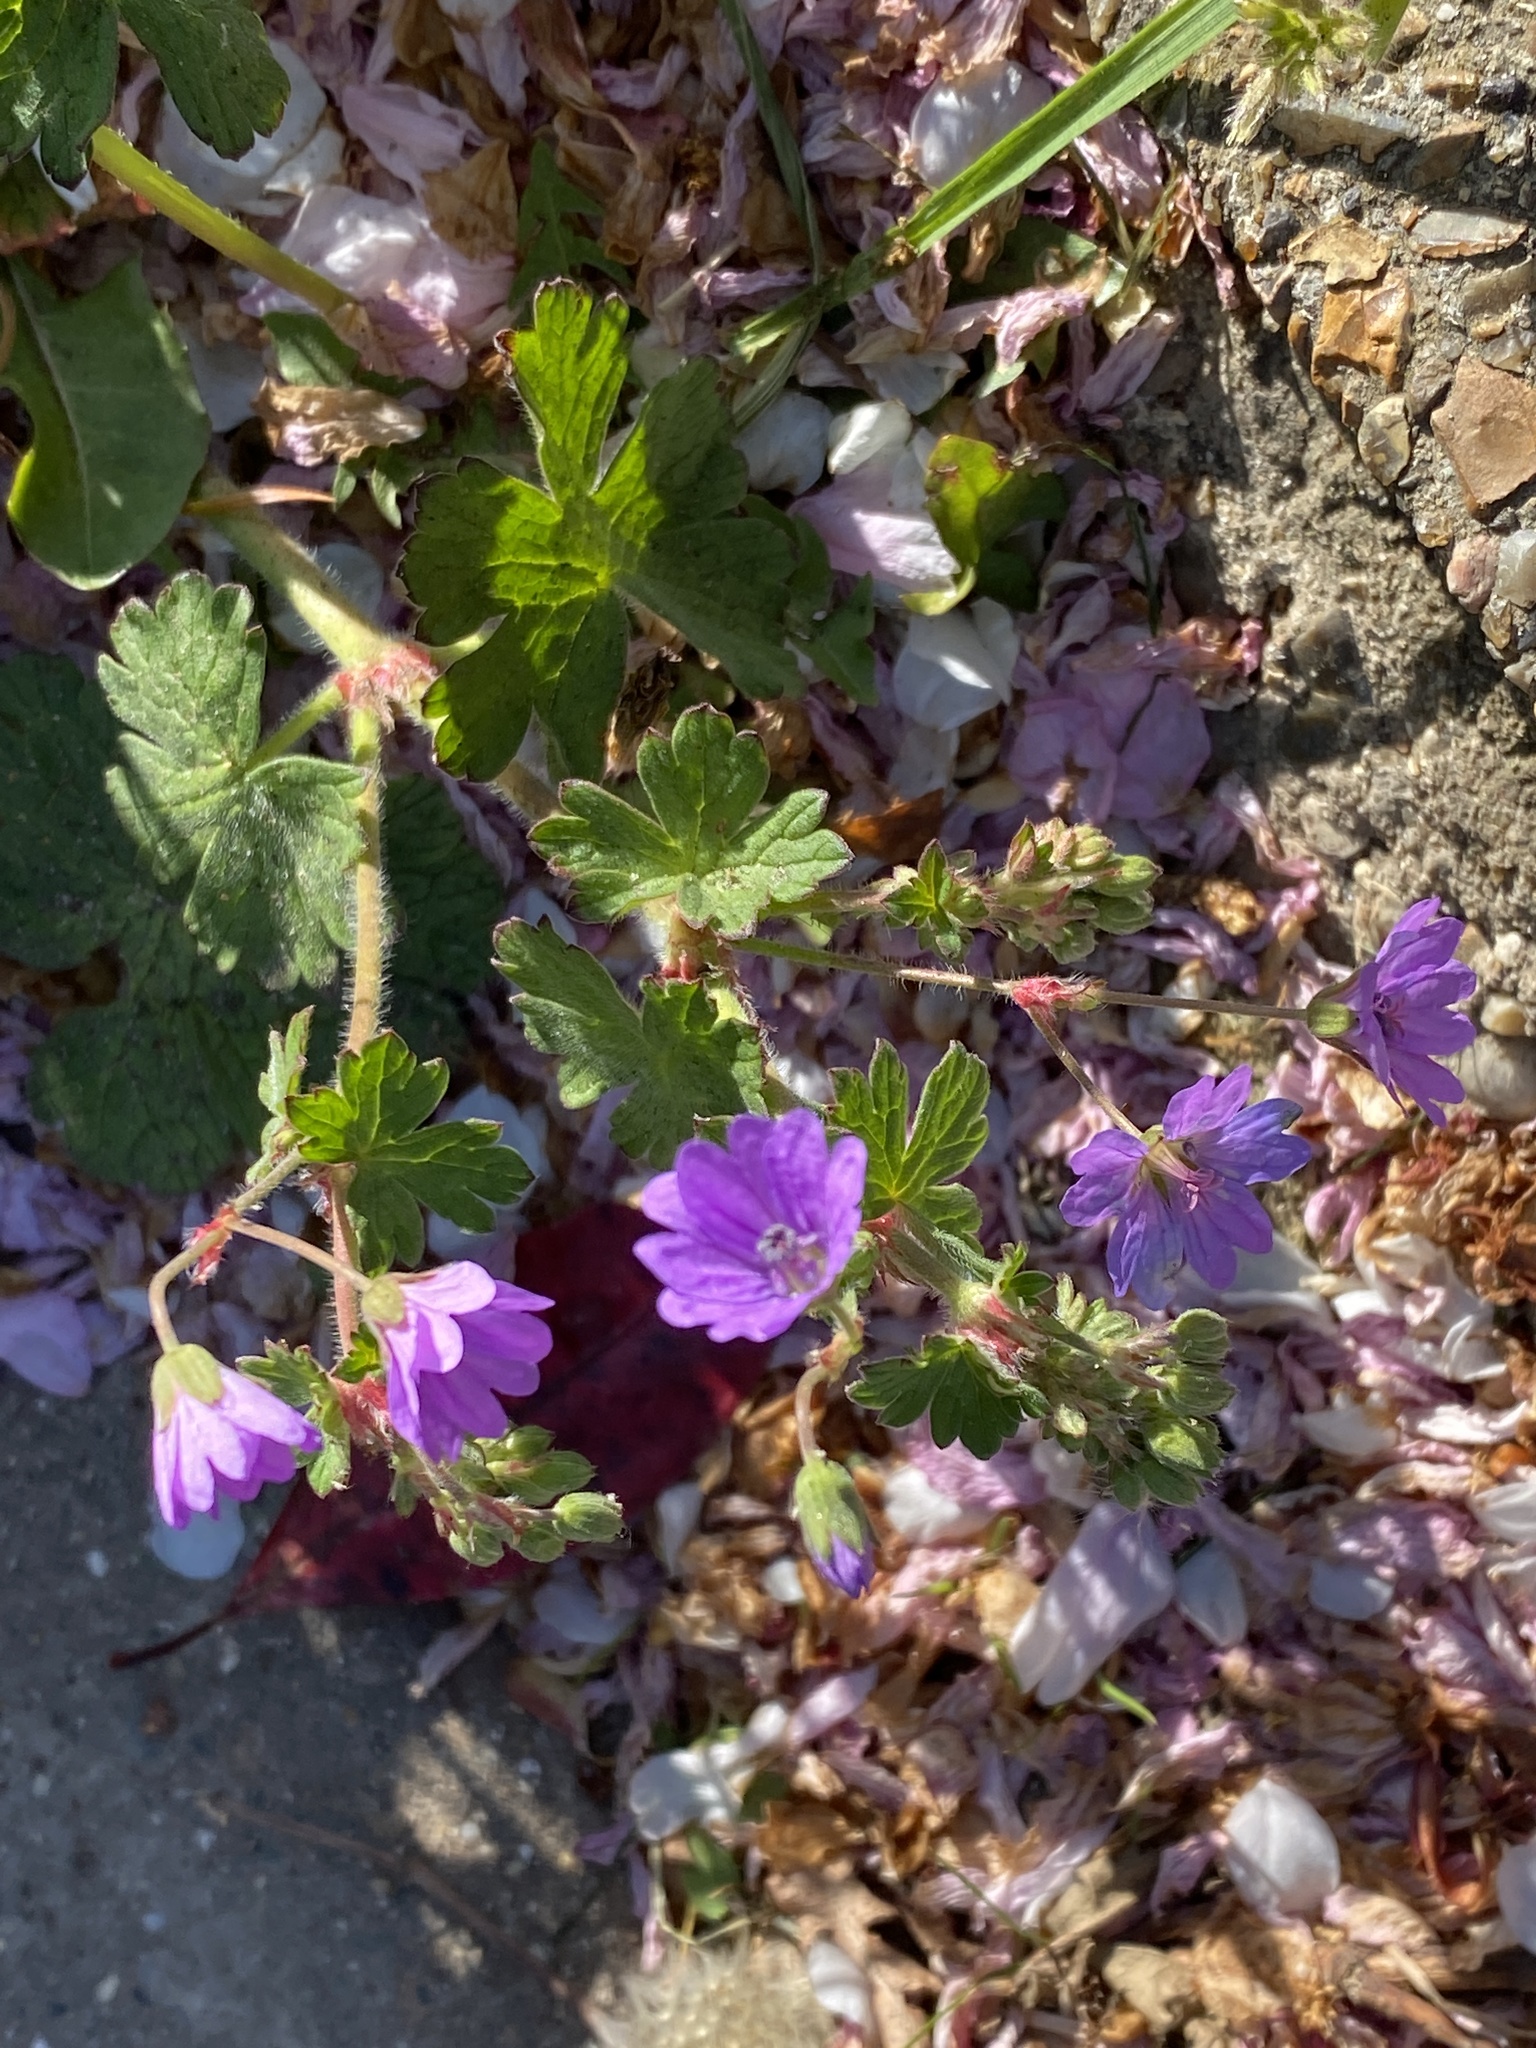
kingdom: Plantae
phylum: Tracheophyta
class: Magnoliopsida
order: Geraniales
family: Geraniaceae
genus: Geranium
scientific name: Geranium pyrenaicum
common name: Hedgerow crane's-bill
